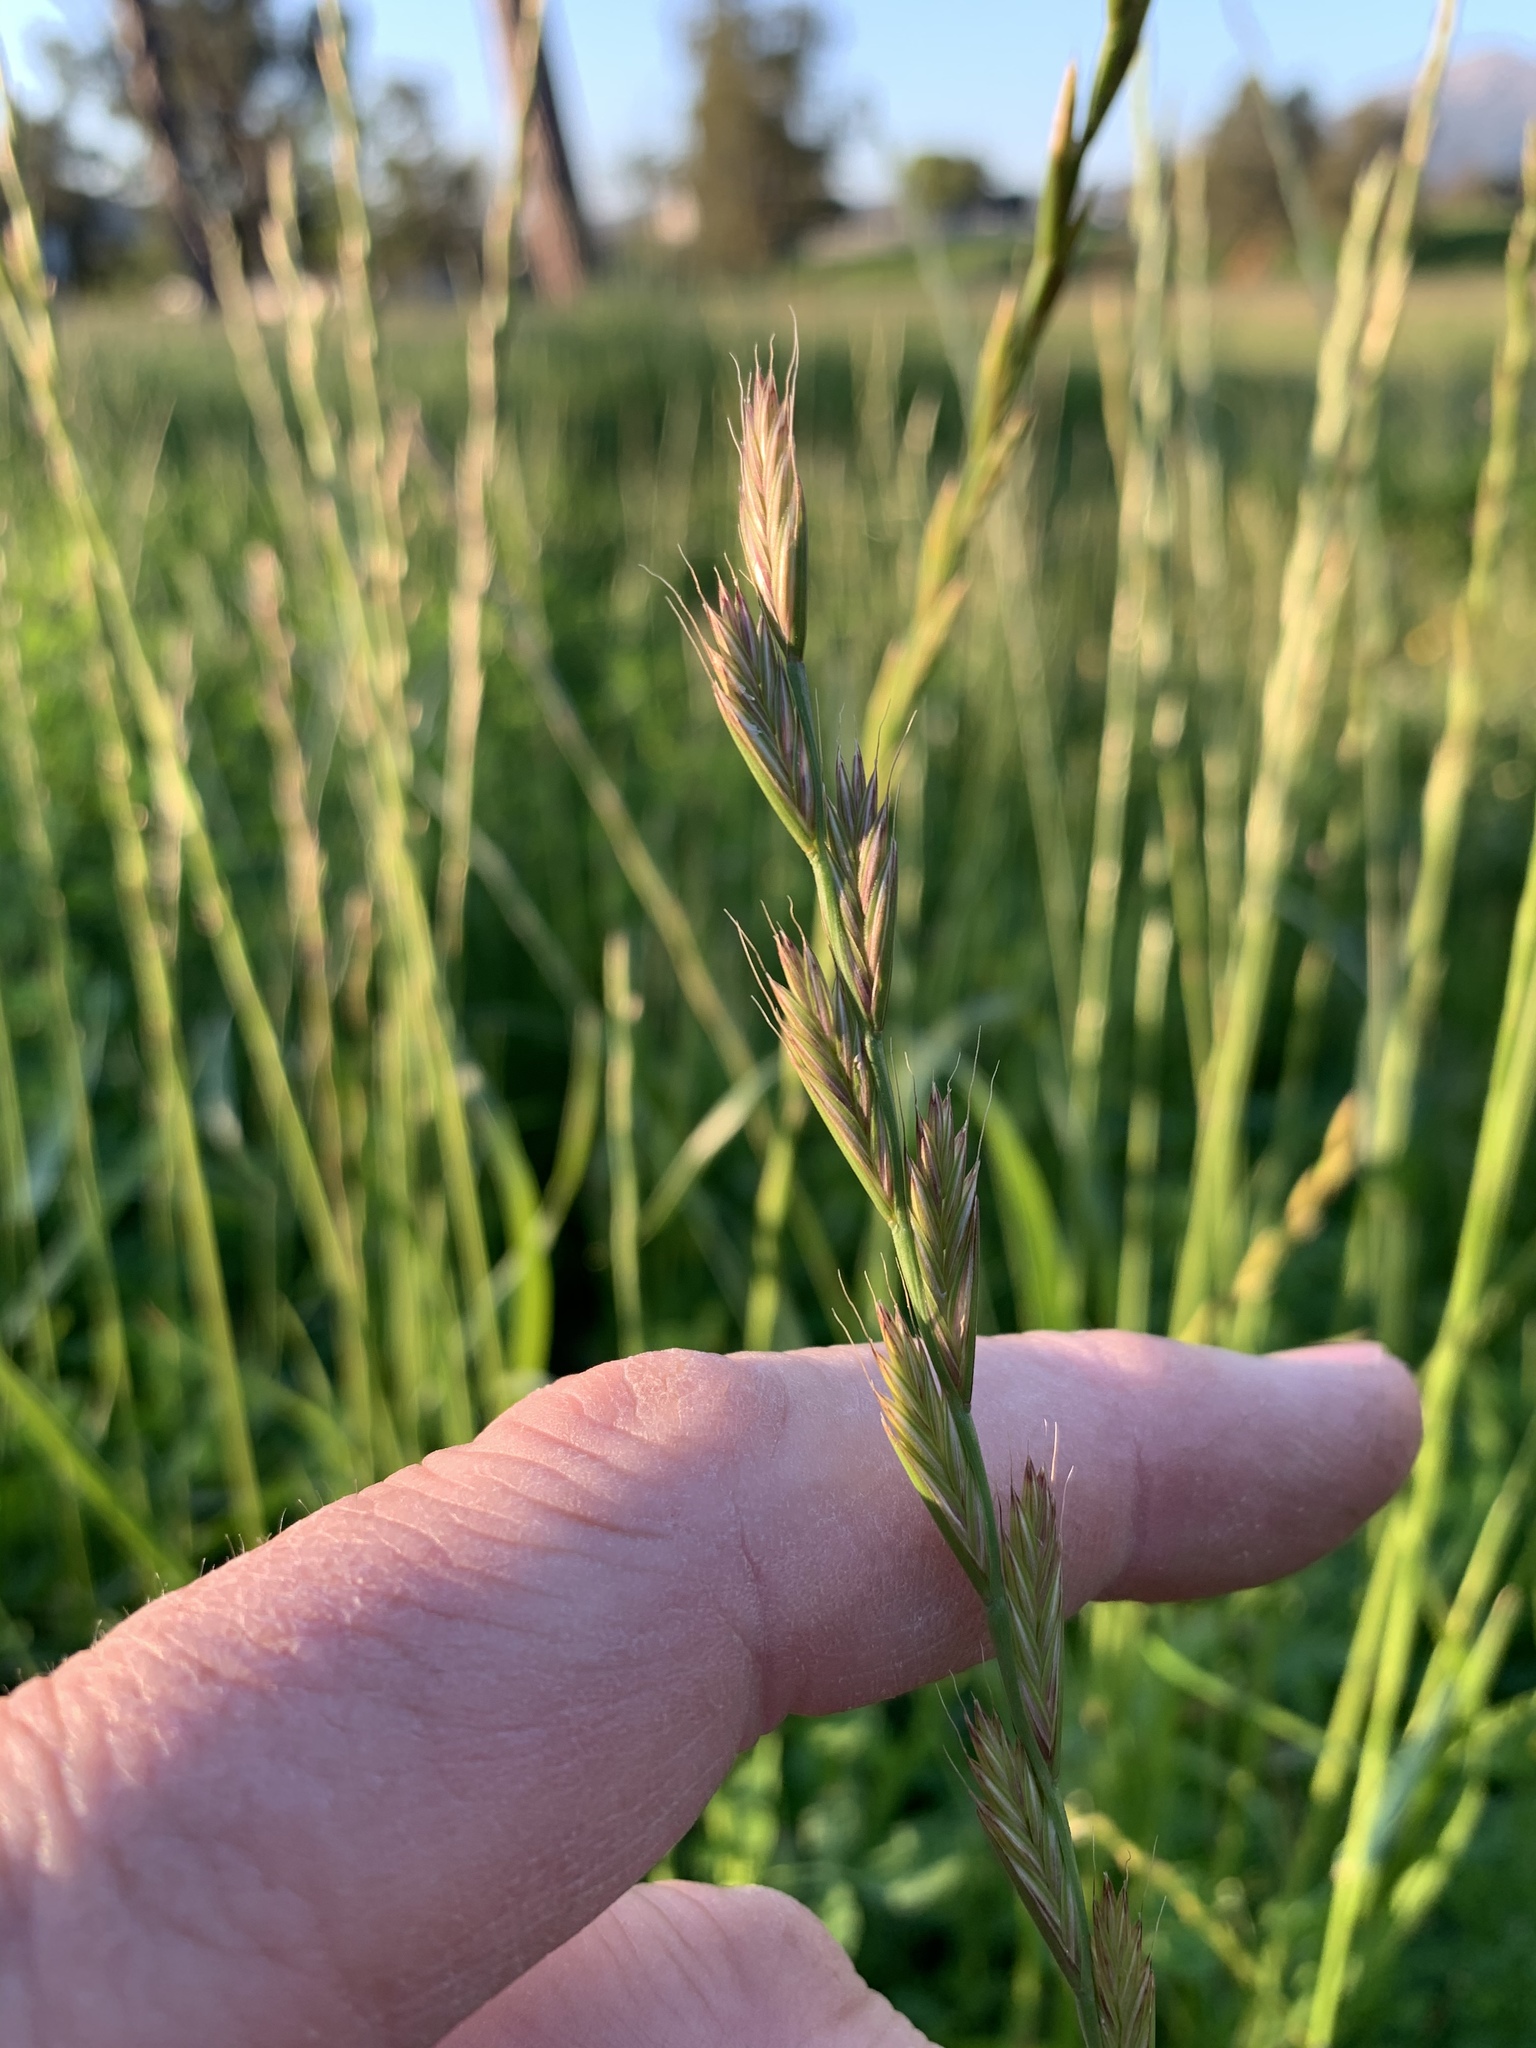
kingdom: Plantae
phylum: Tracheophyta
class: Liliopsida
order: Poales
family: Poaceae
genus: Lolium
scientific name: Lolium multiflorum
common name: Annual ryegrass
